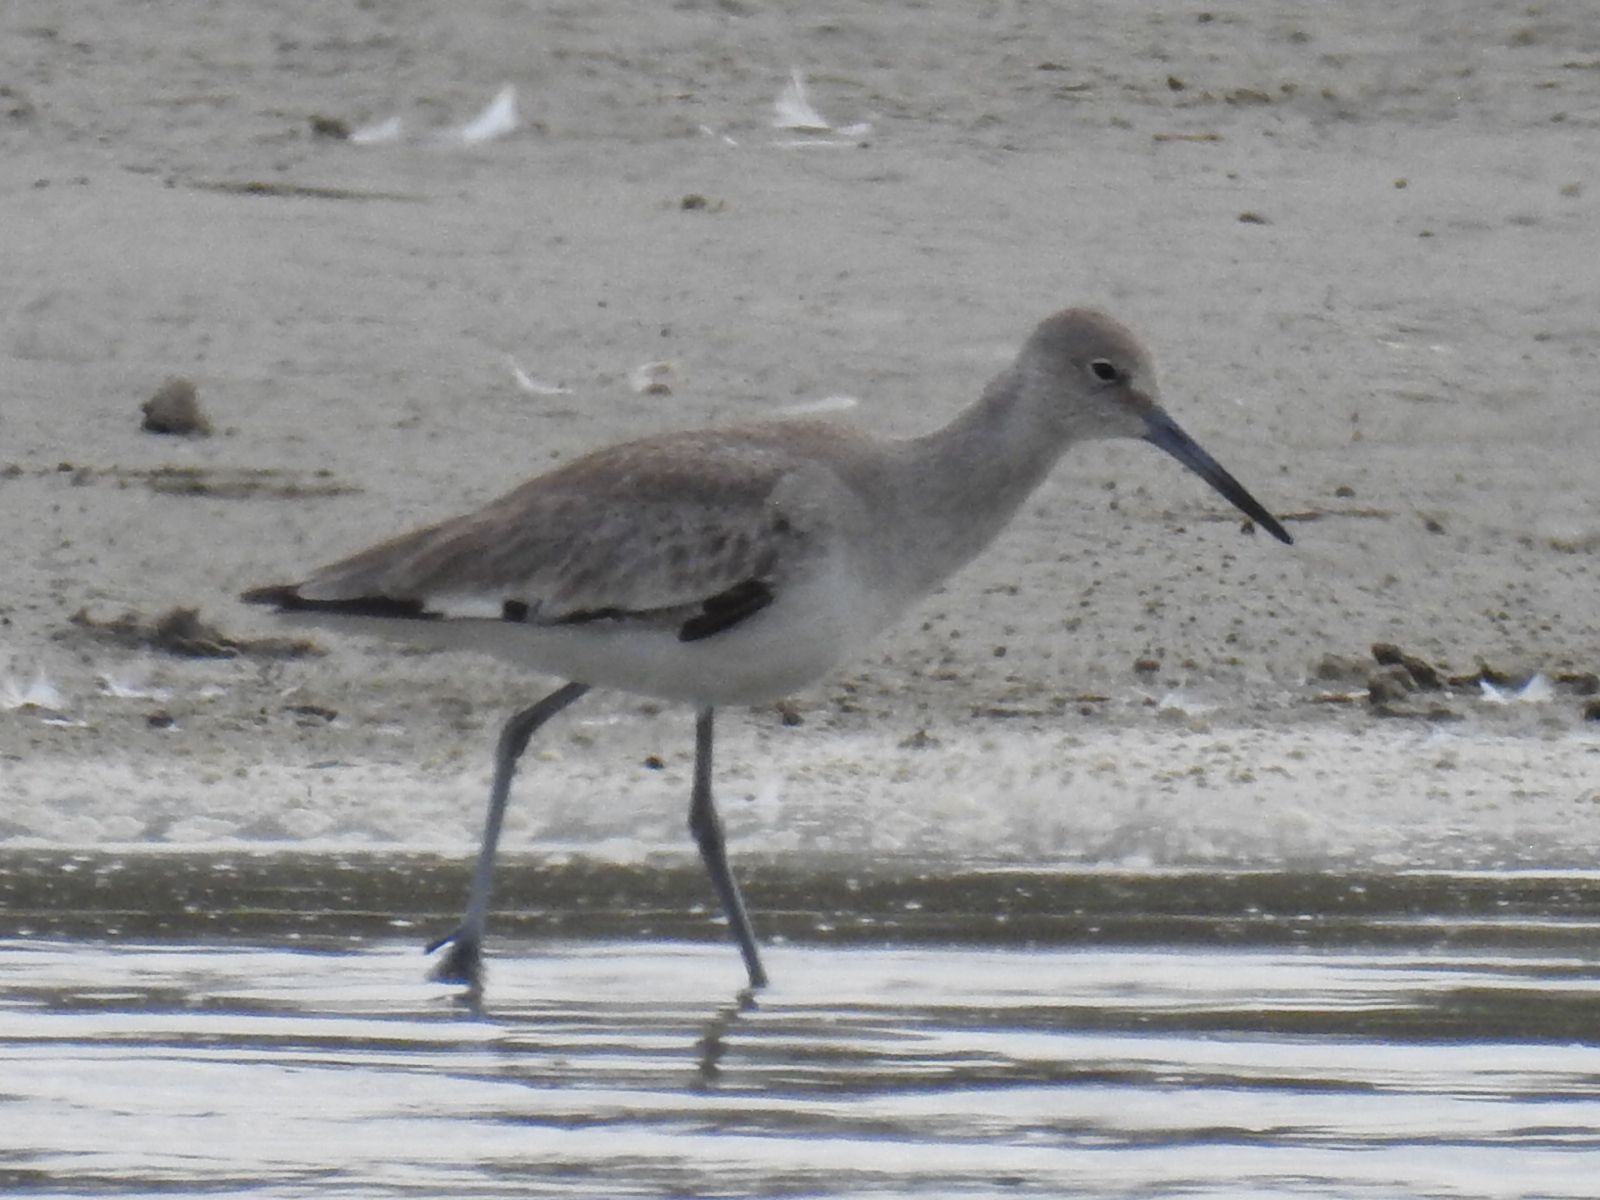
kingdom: Animalia
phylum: Chordata
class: Aves
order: Charadriiformes
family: Scolopacidae
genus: Tringa
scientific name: Tringa semipalmata
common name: Willet
